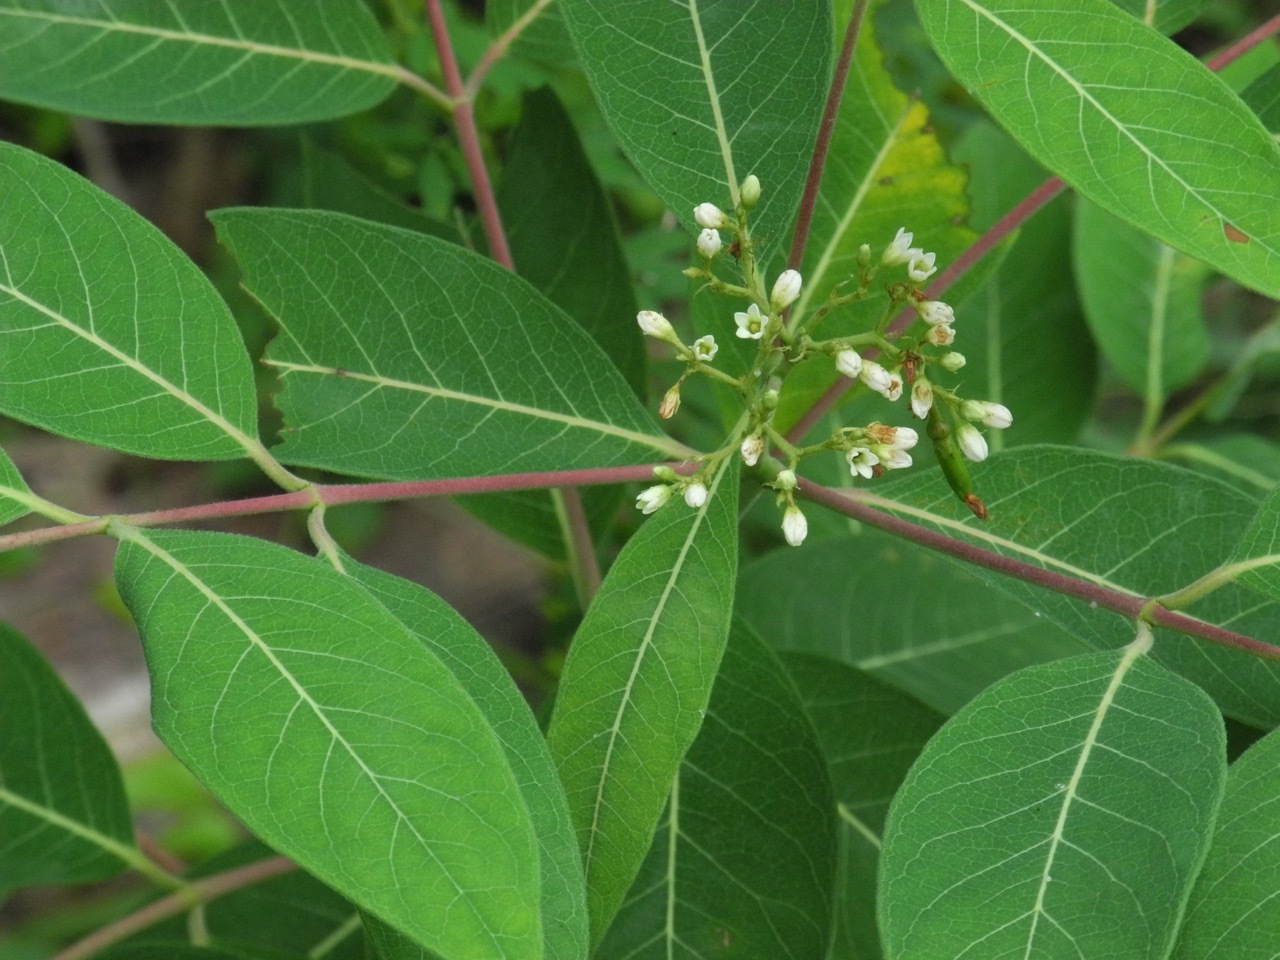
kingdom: Plantae
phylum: Tracheophyta
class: Magnoliopsida
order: Gentianales
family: Apocynaceae
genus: Apocynum
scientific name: Apocynum cannabinum
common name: Hemp dogbane
